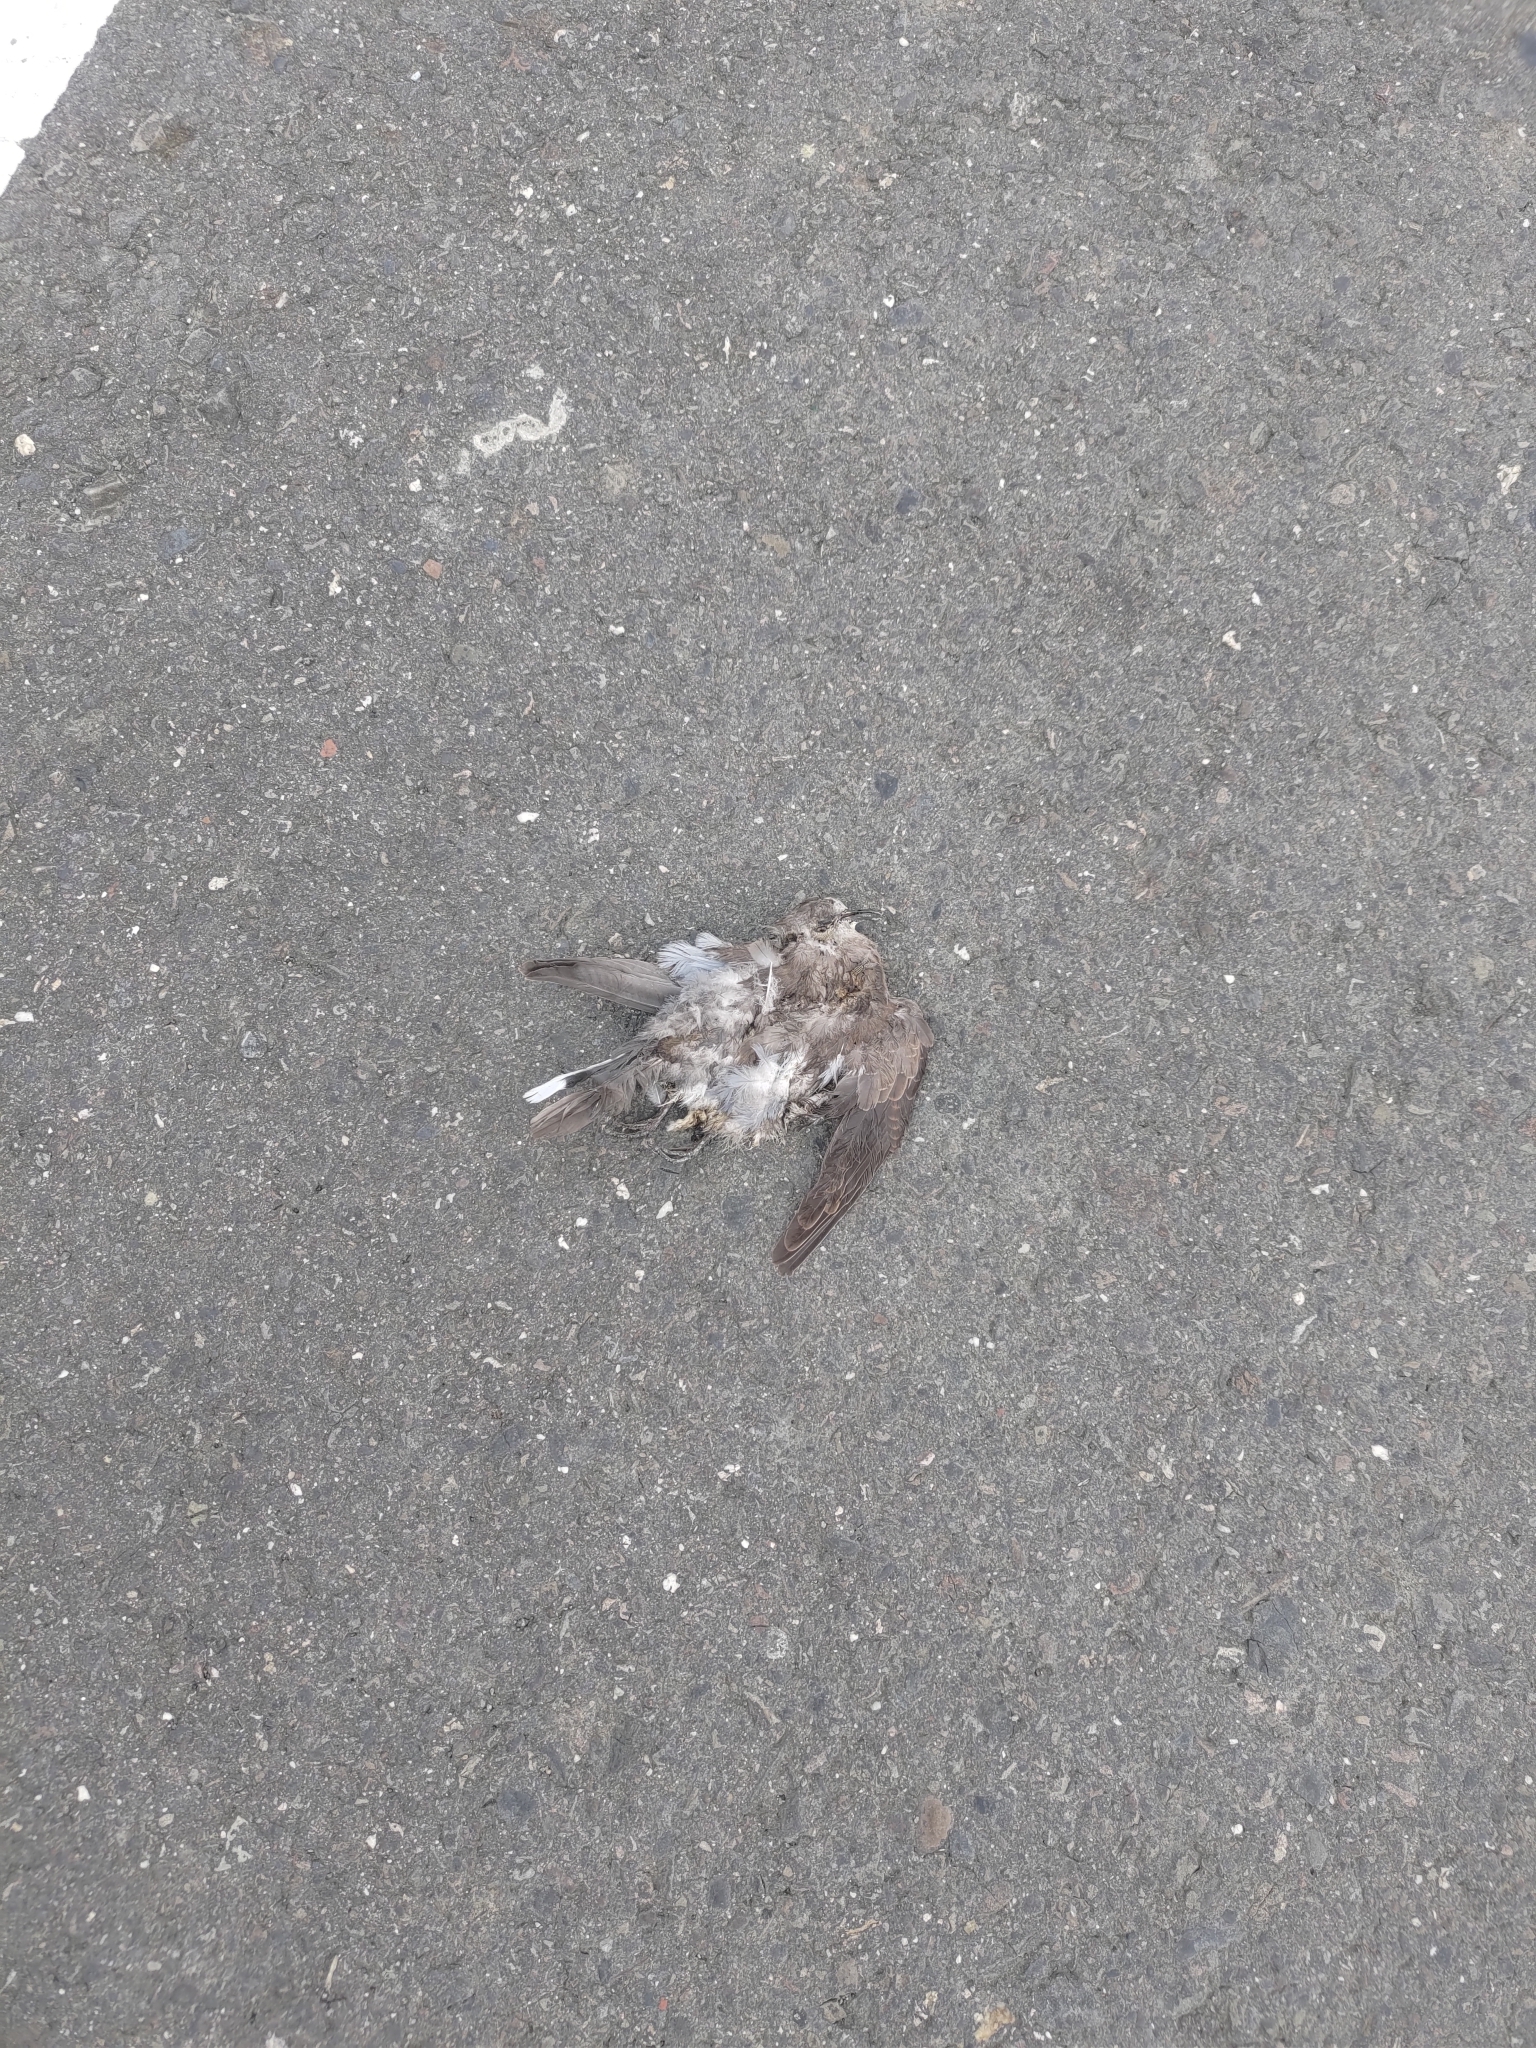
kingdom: Animalia
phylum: Chordata
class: Aves
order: Columbiformes
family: Columbidae
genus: Streptopelia
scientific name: Streptopelia tranquebarica
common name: Red turtle dove
